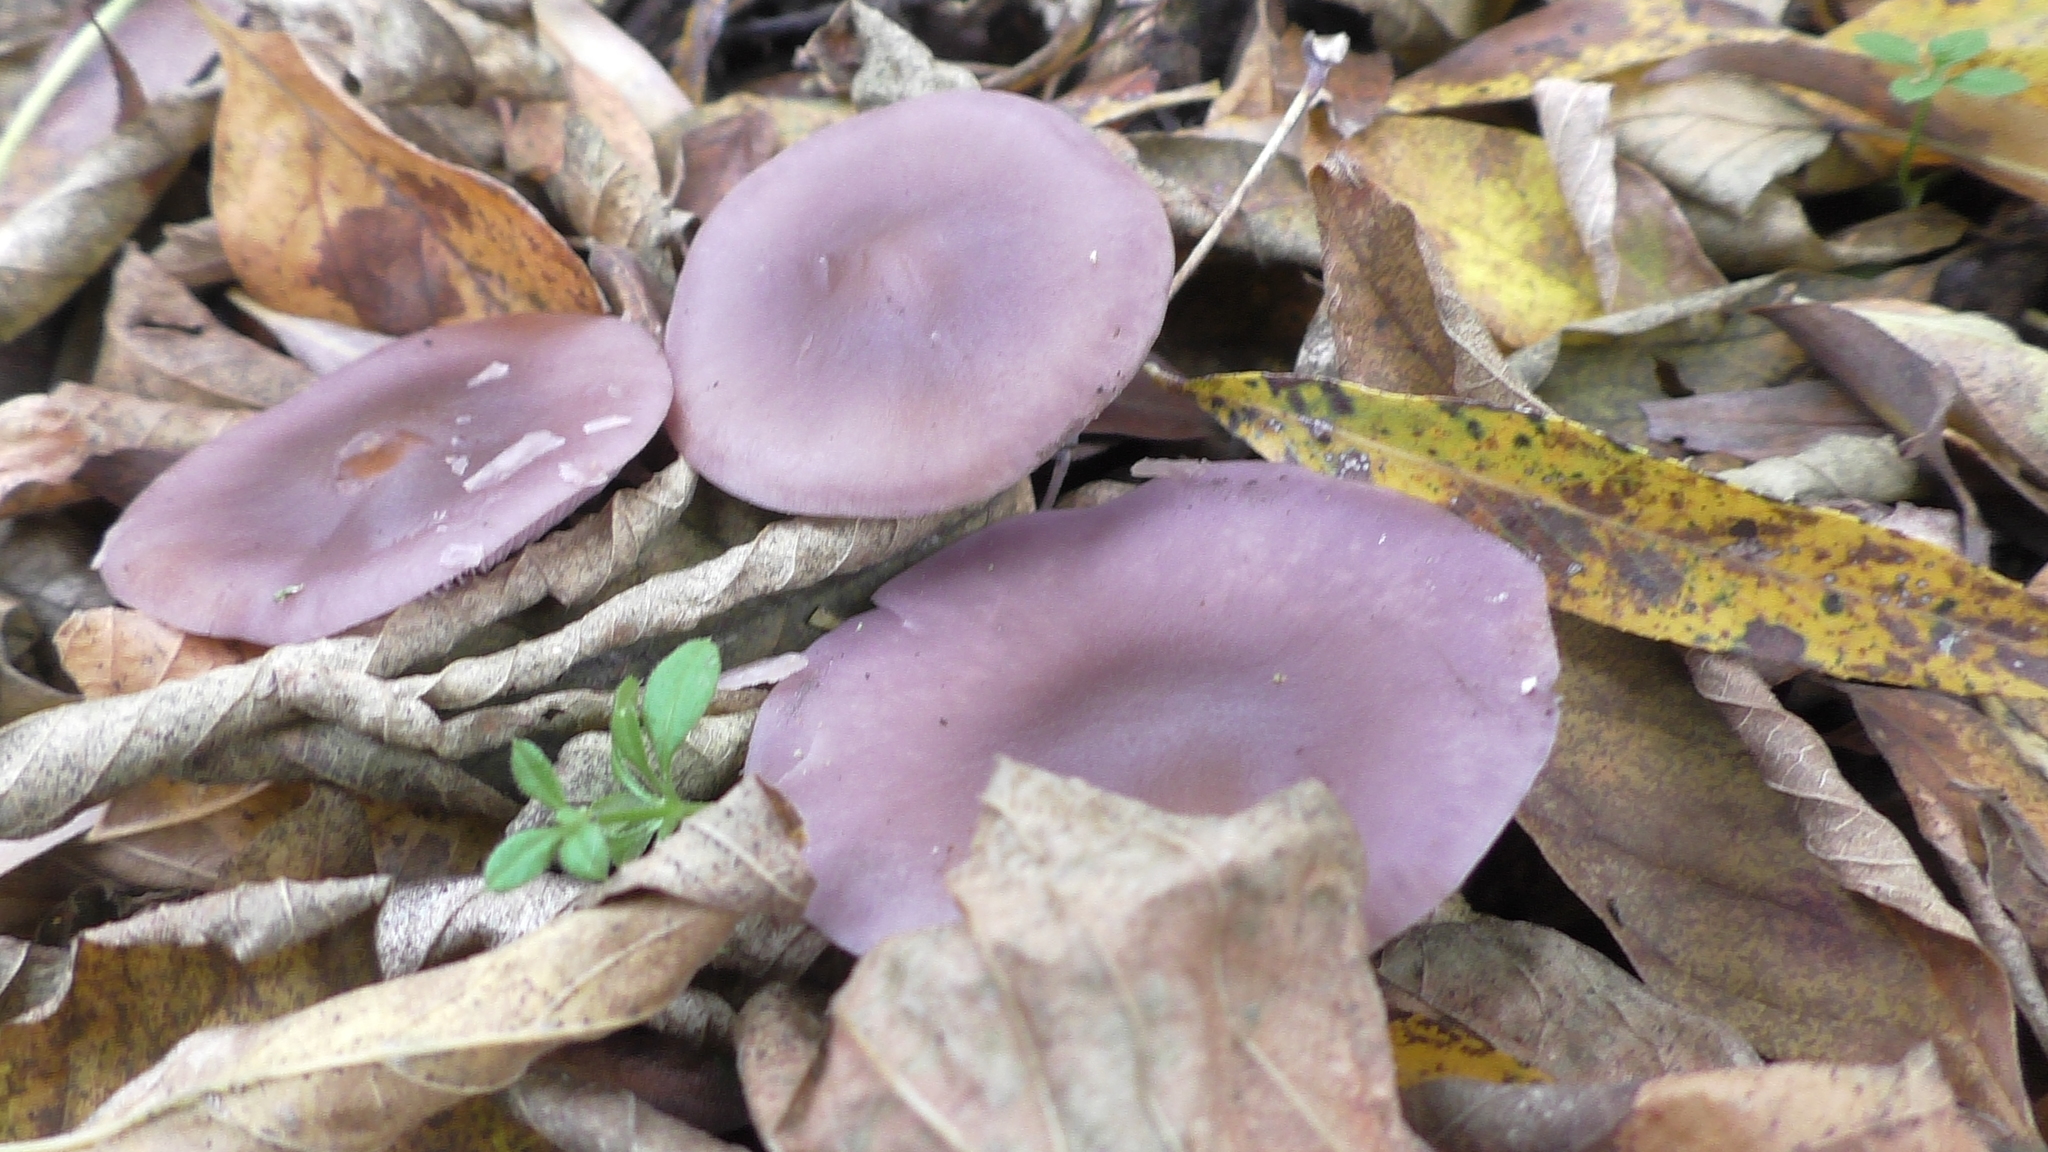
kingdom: Fungi
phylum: Basidiomycota
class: Agaricomycetes
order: Agaricales
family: Tricholomataceae
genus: Collybia
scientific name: Collybia
